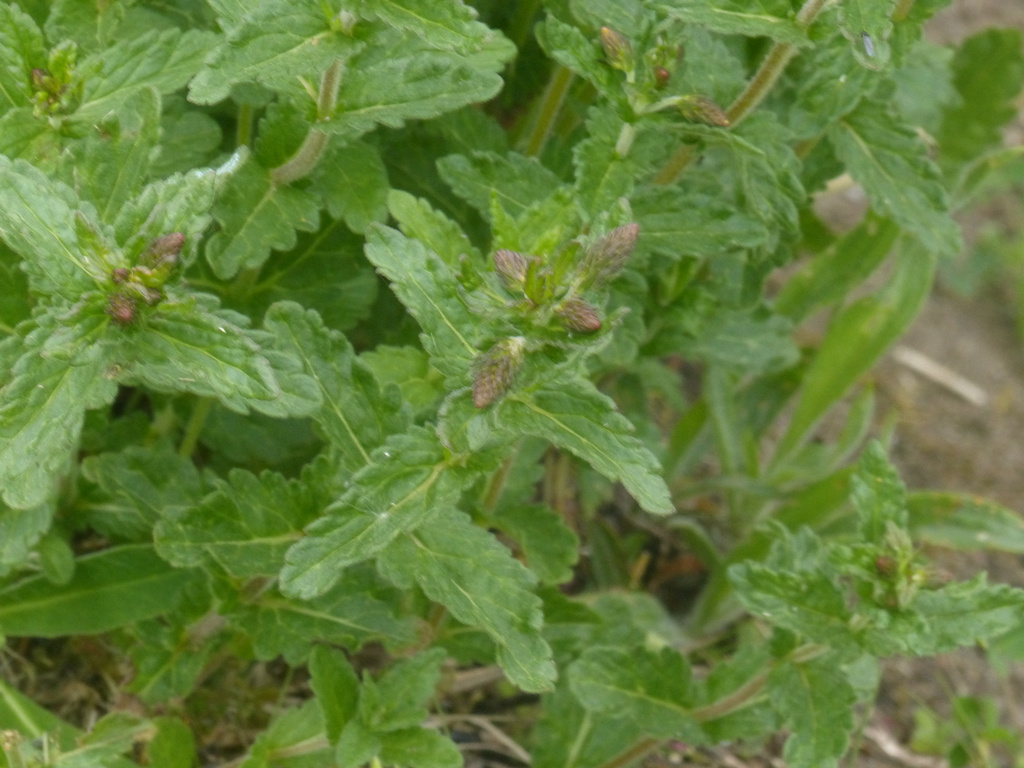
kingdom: Plantae
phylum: Tracheophyta
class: Magnoliopsida
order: Lamiales
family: Plantaginaceae
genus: Veronica
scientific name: Veronica teucrium
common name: Large speedwell
